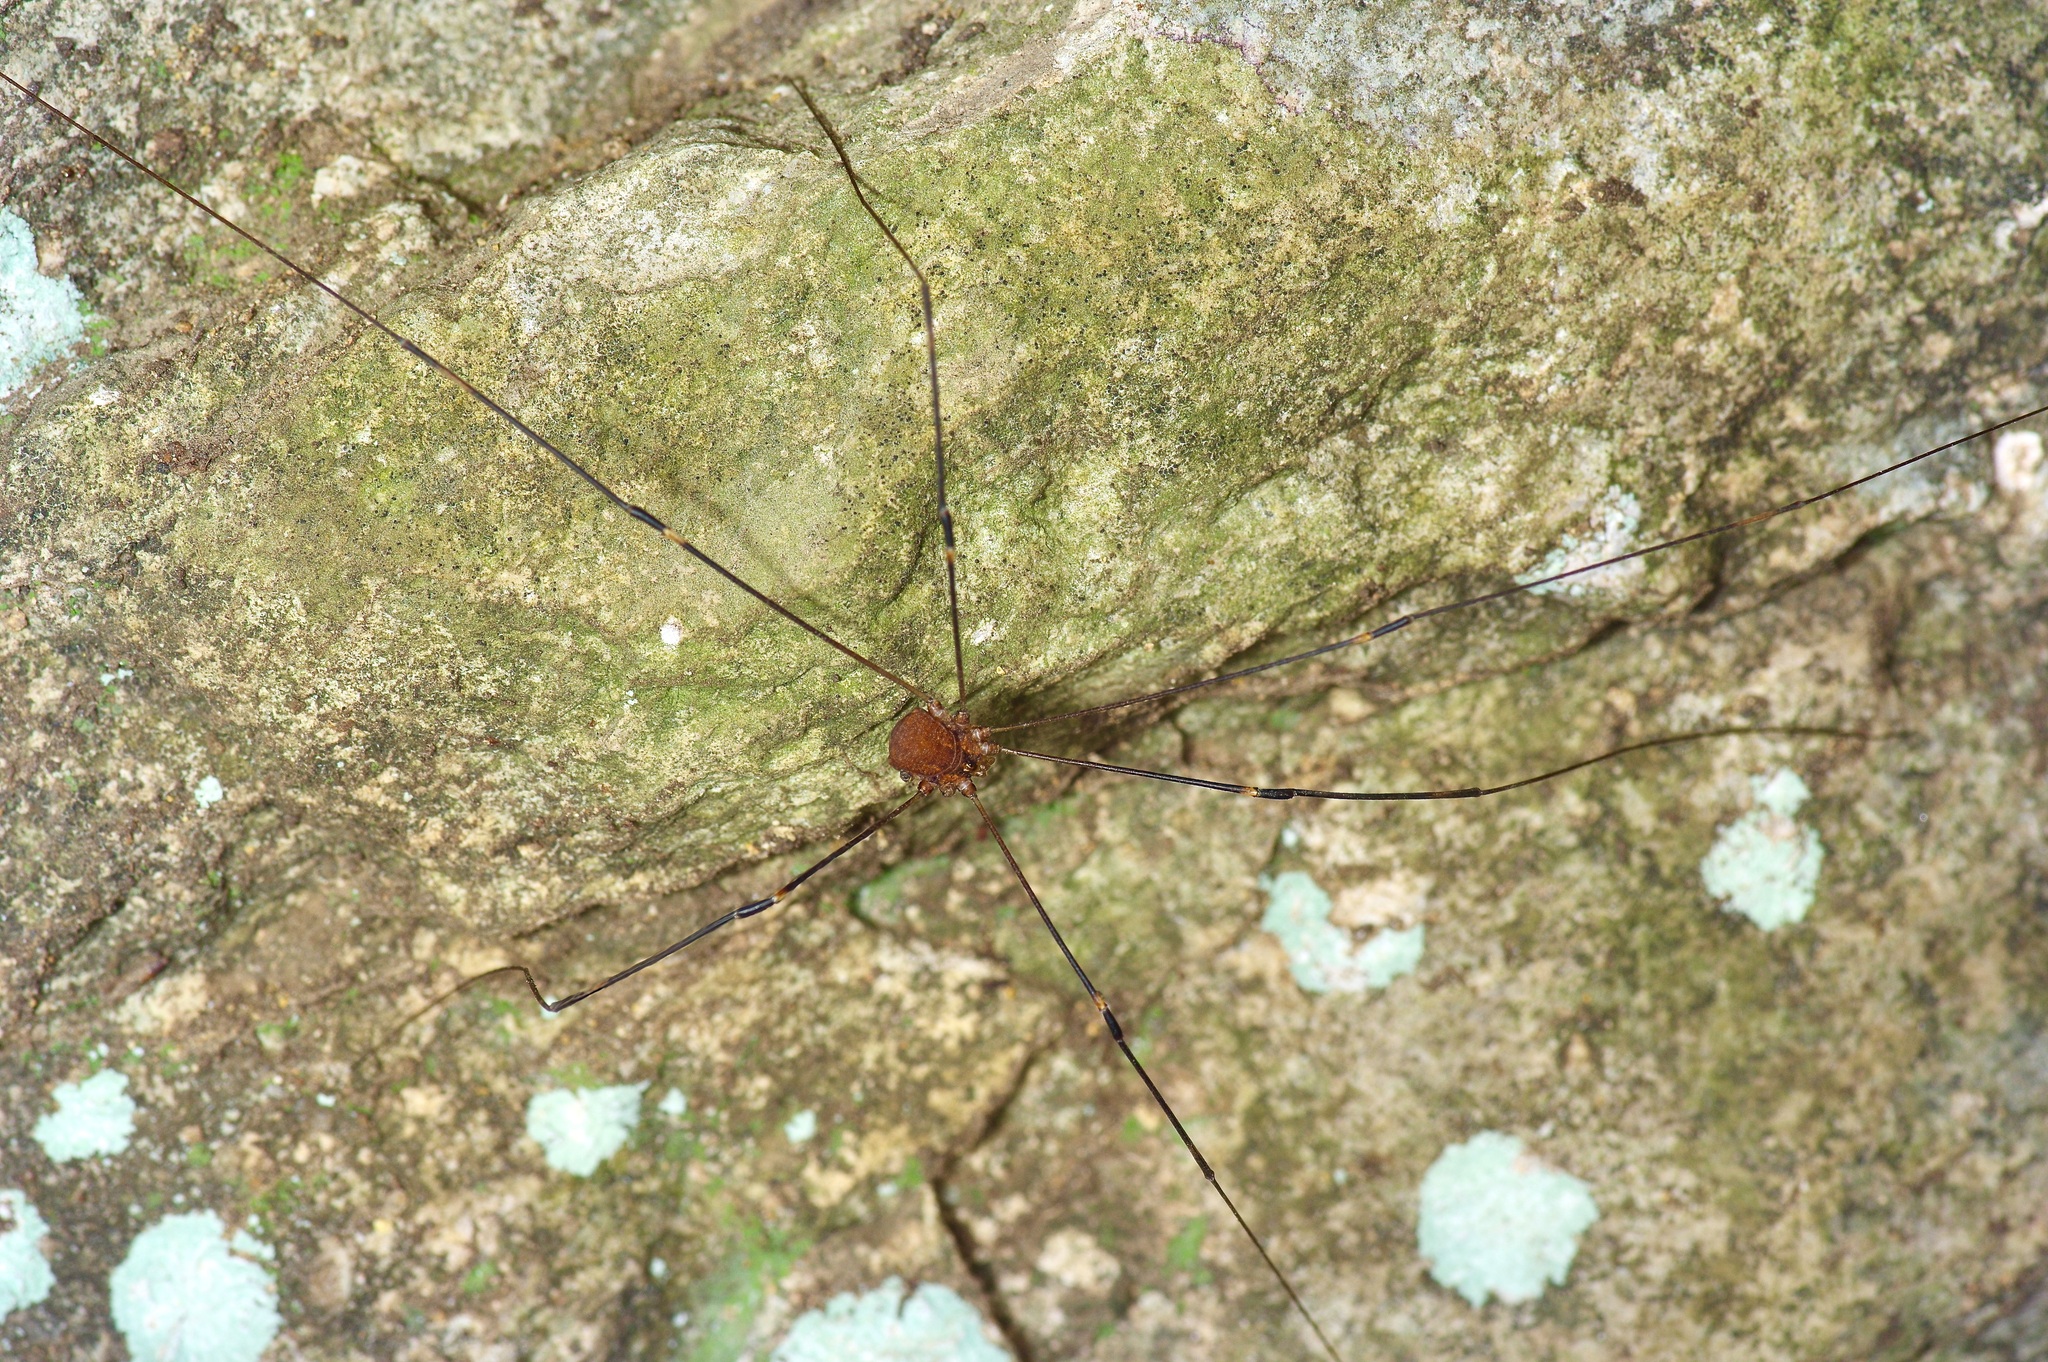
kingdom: Animalia
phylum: Arthropoda
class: Arachnida
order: Opiliones
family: Sclerosomatidae
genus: Leiobunum
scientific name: Leiobunum townsendi
